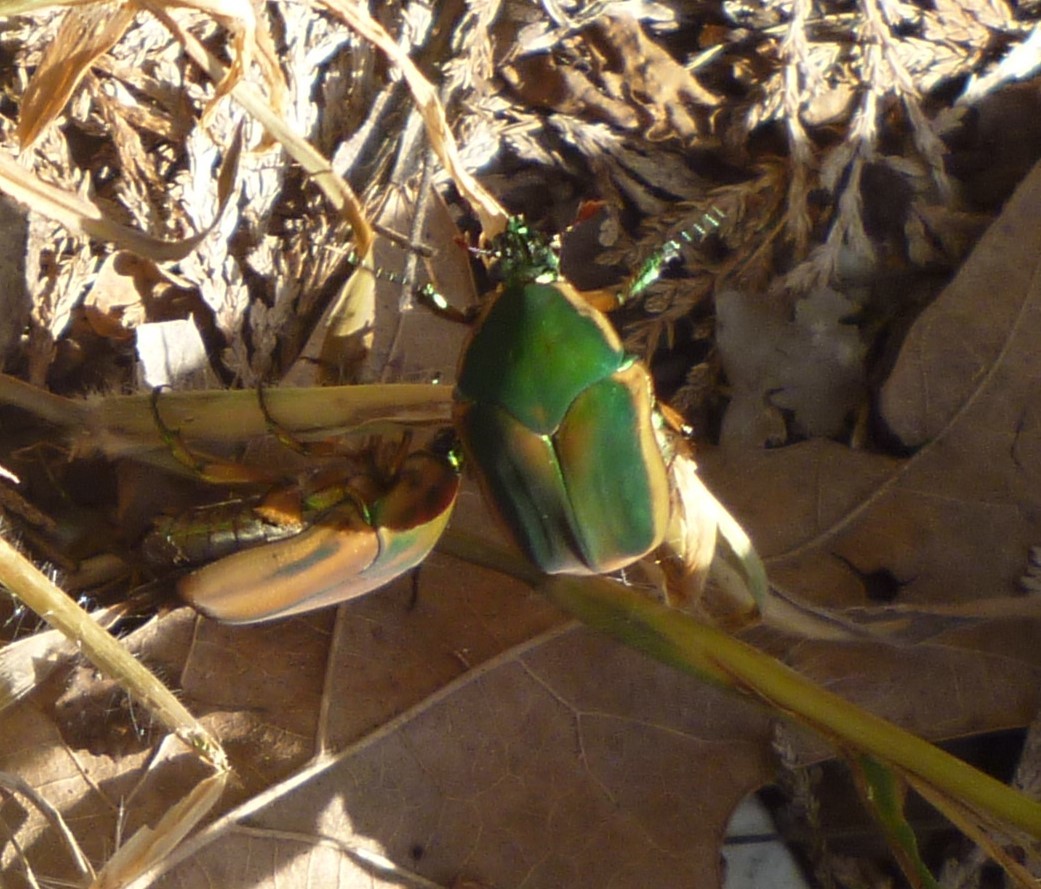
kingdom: Animalia
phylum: Arthropoda
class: Insecta
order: Coleoptera
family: Scarabaeidae
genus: Cotinis
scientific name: Cotinis nitida
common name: Common green june beetle
